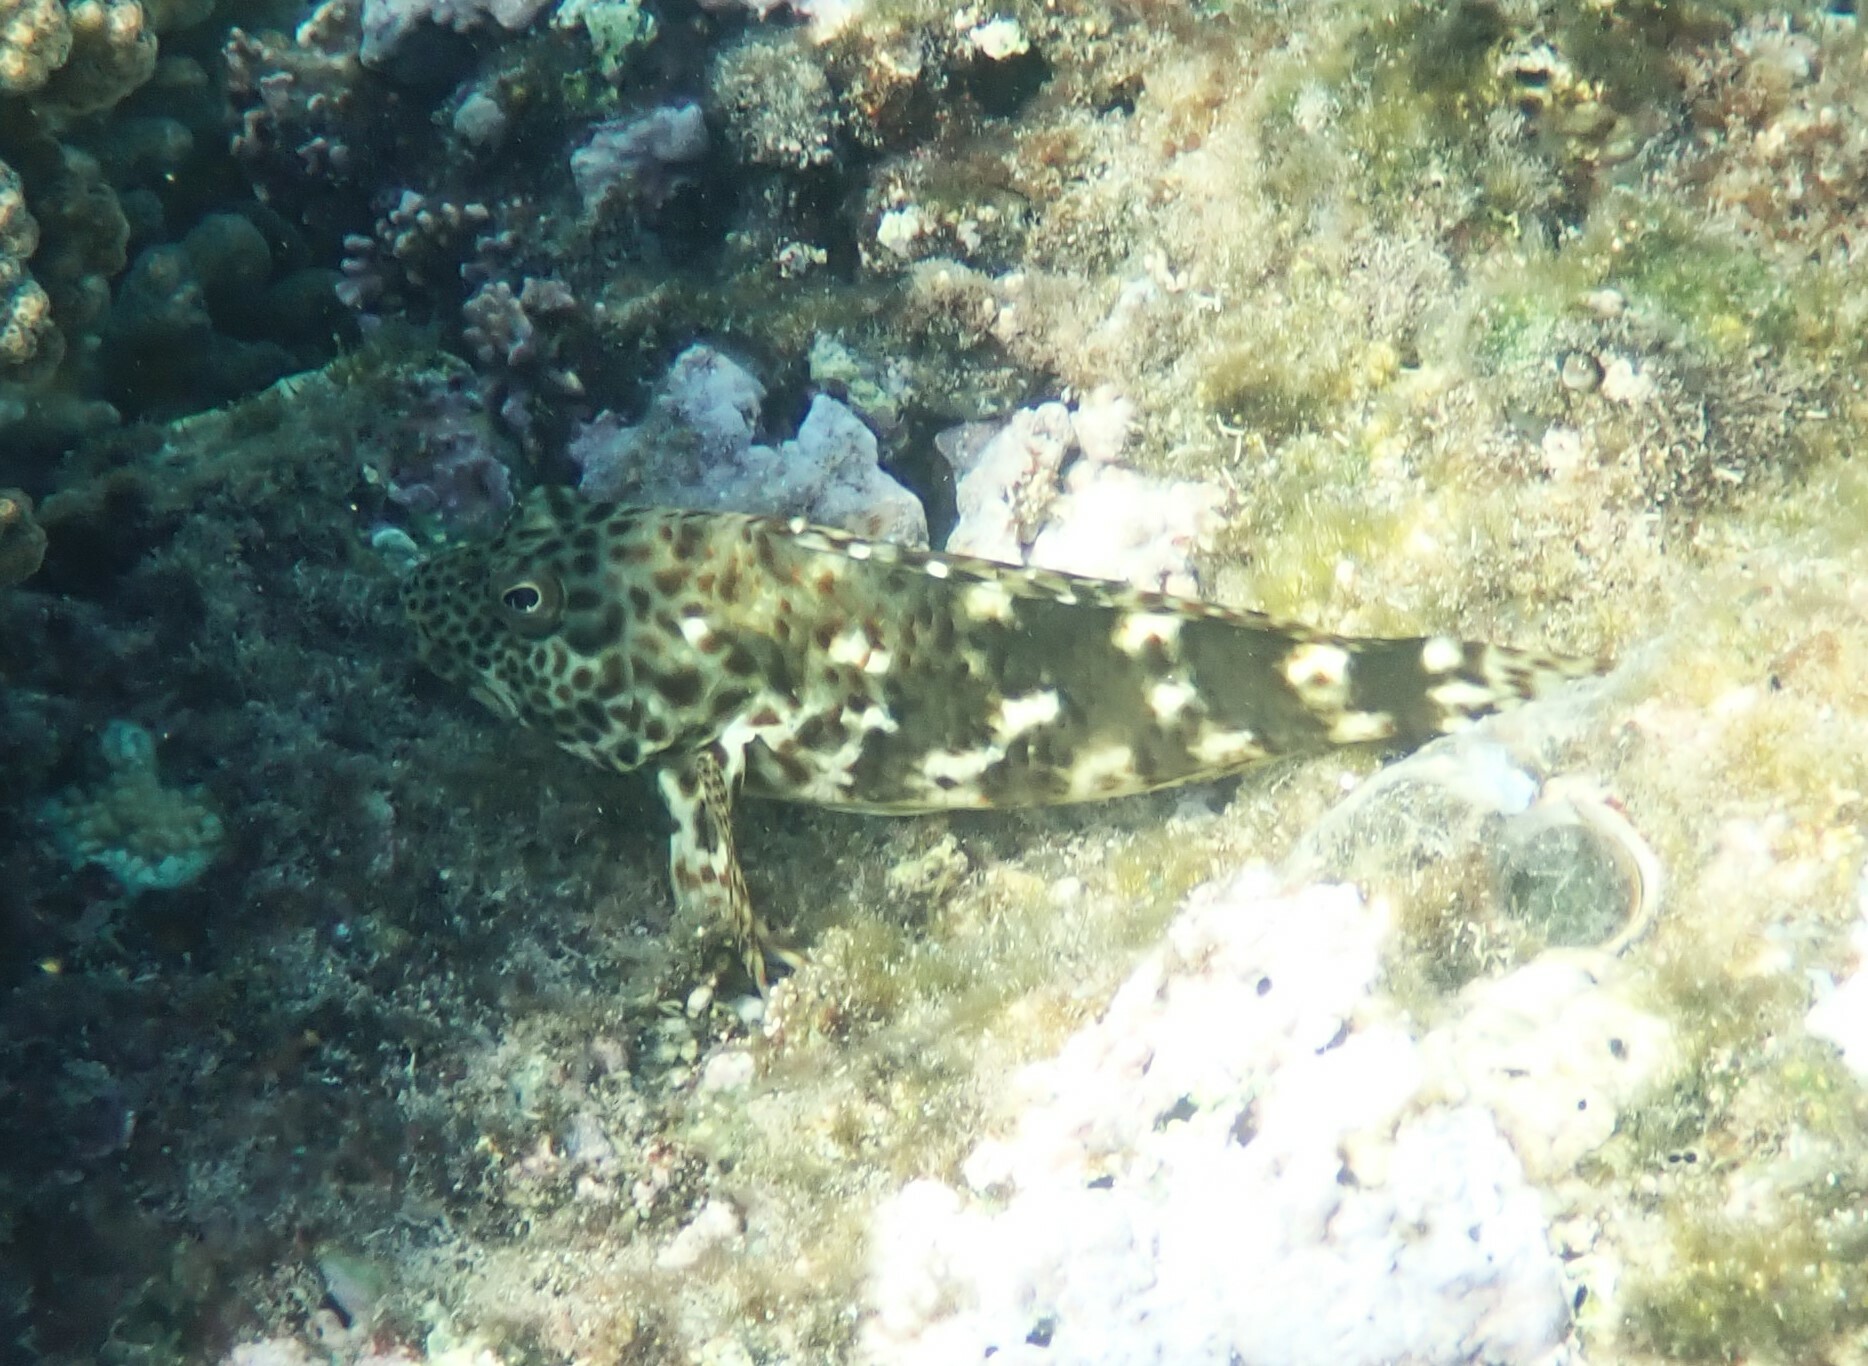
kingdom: Animalia
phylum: Chordata
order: Perciformes
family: Cirrhitidae
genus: Cirrhitus
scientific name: Cirrhitus pinnulatus
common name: Stocky hawkfish
